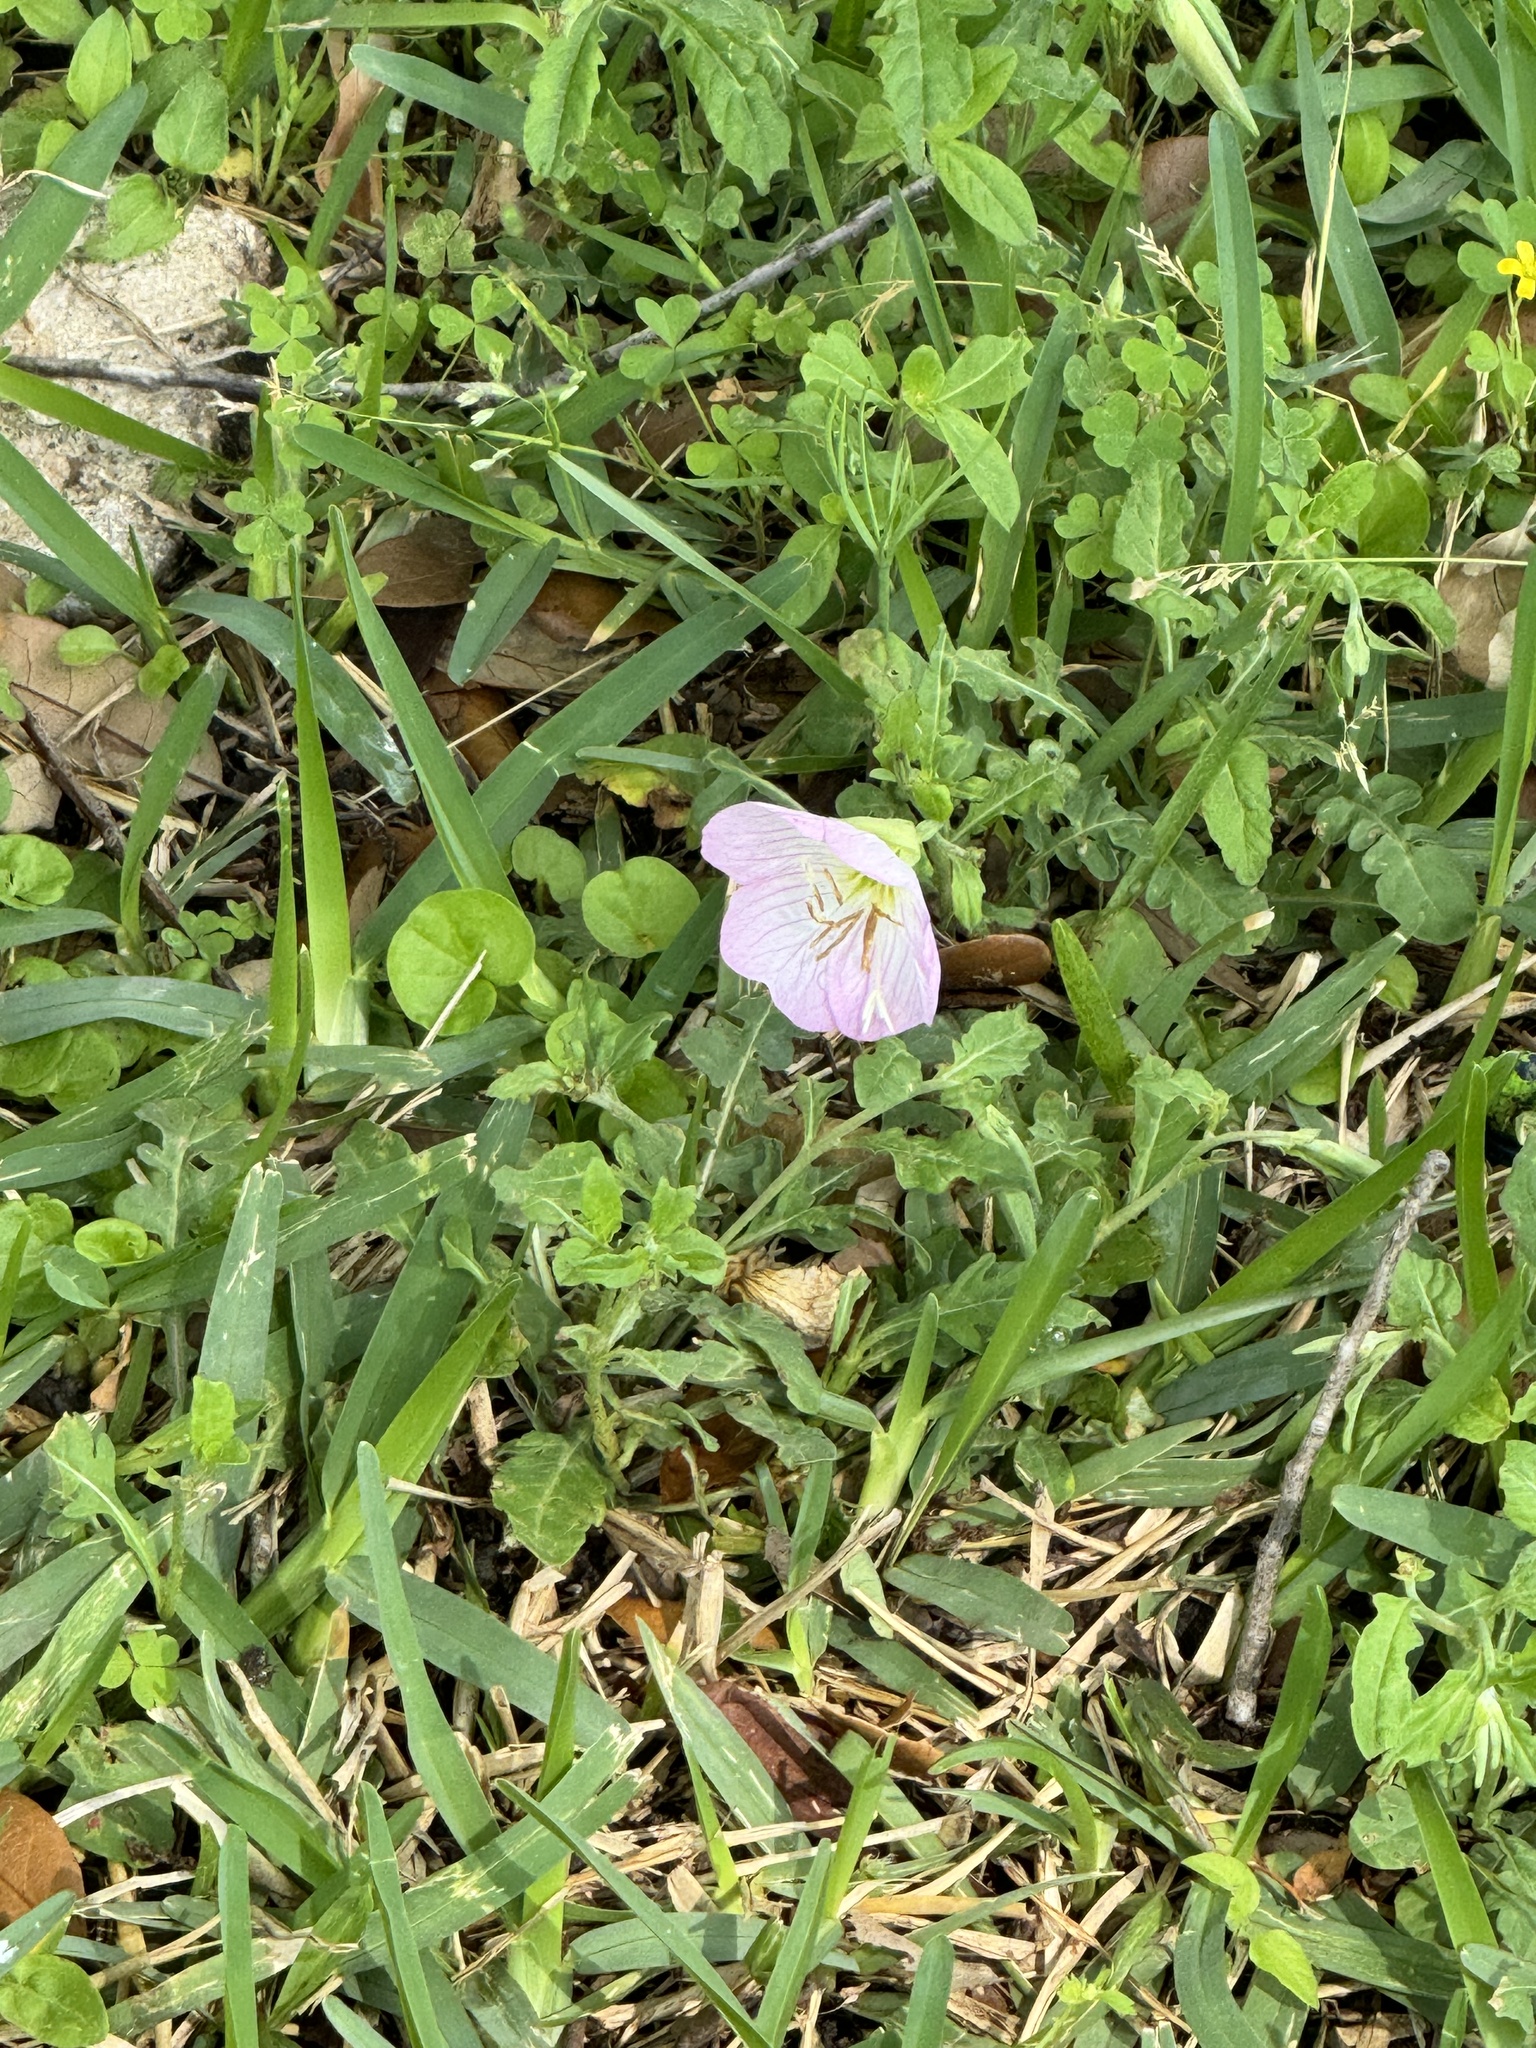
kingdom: Plantae
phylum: Tracheophyta
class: Magnoliopsida
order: Myrtales
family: Onagraceae
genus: Oenothera
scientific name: Oenothera speciosa
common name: White evening-primrose
